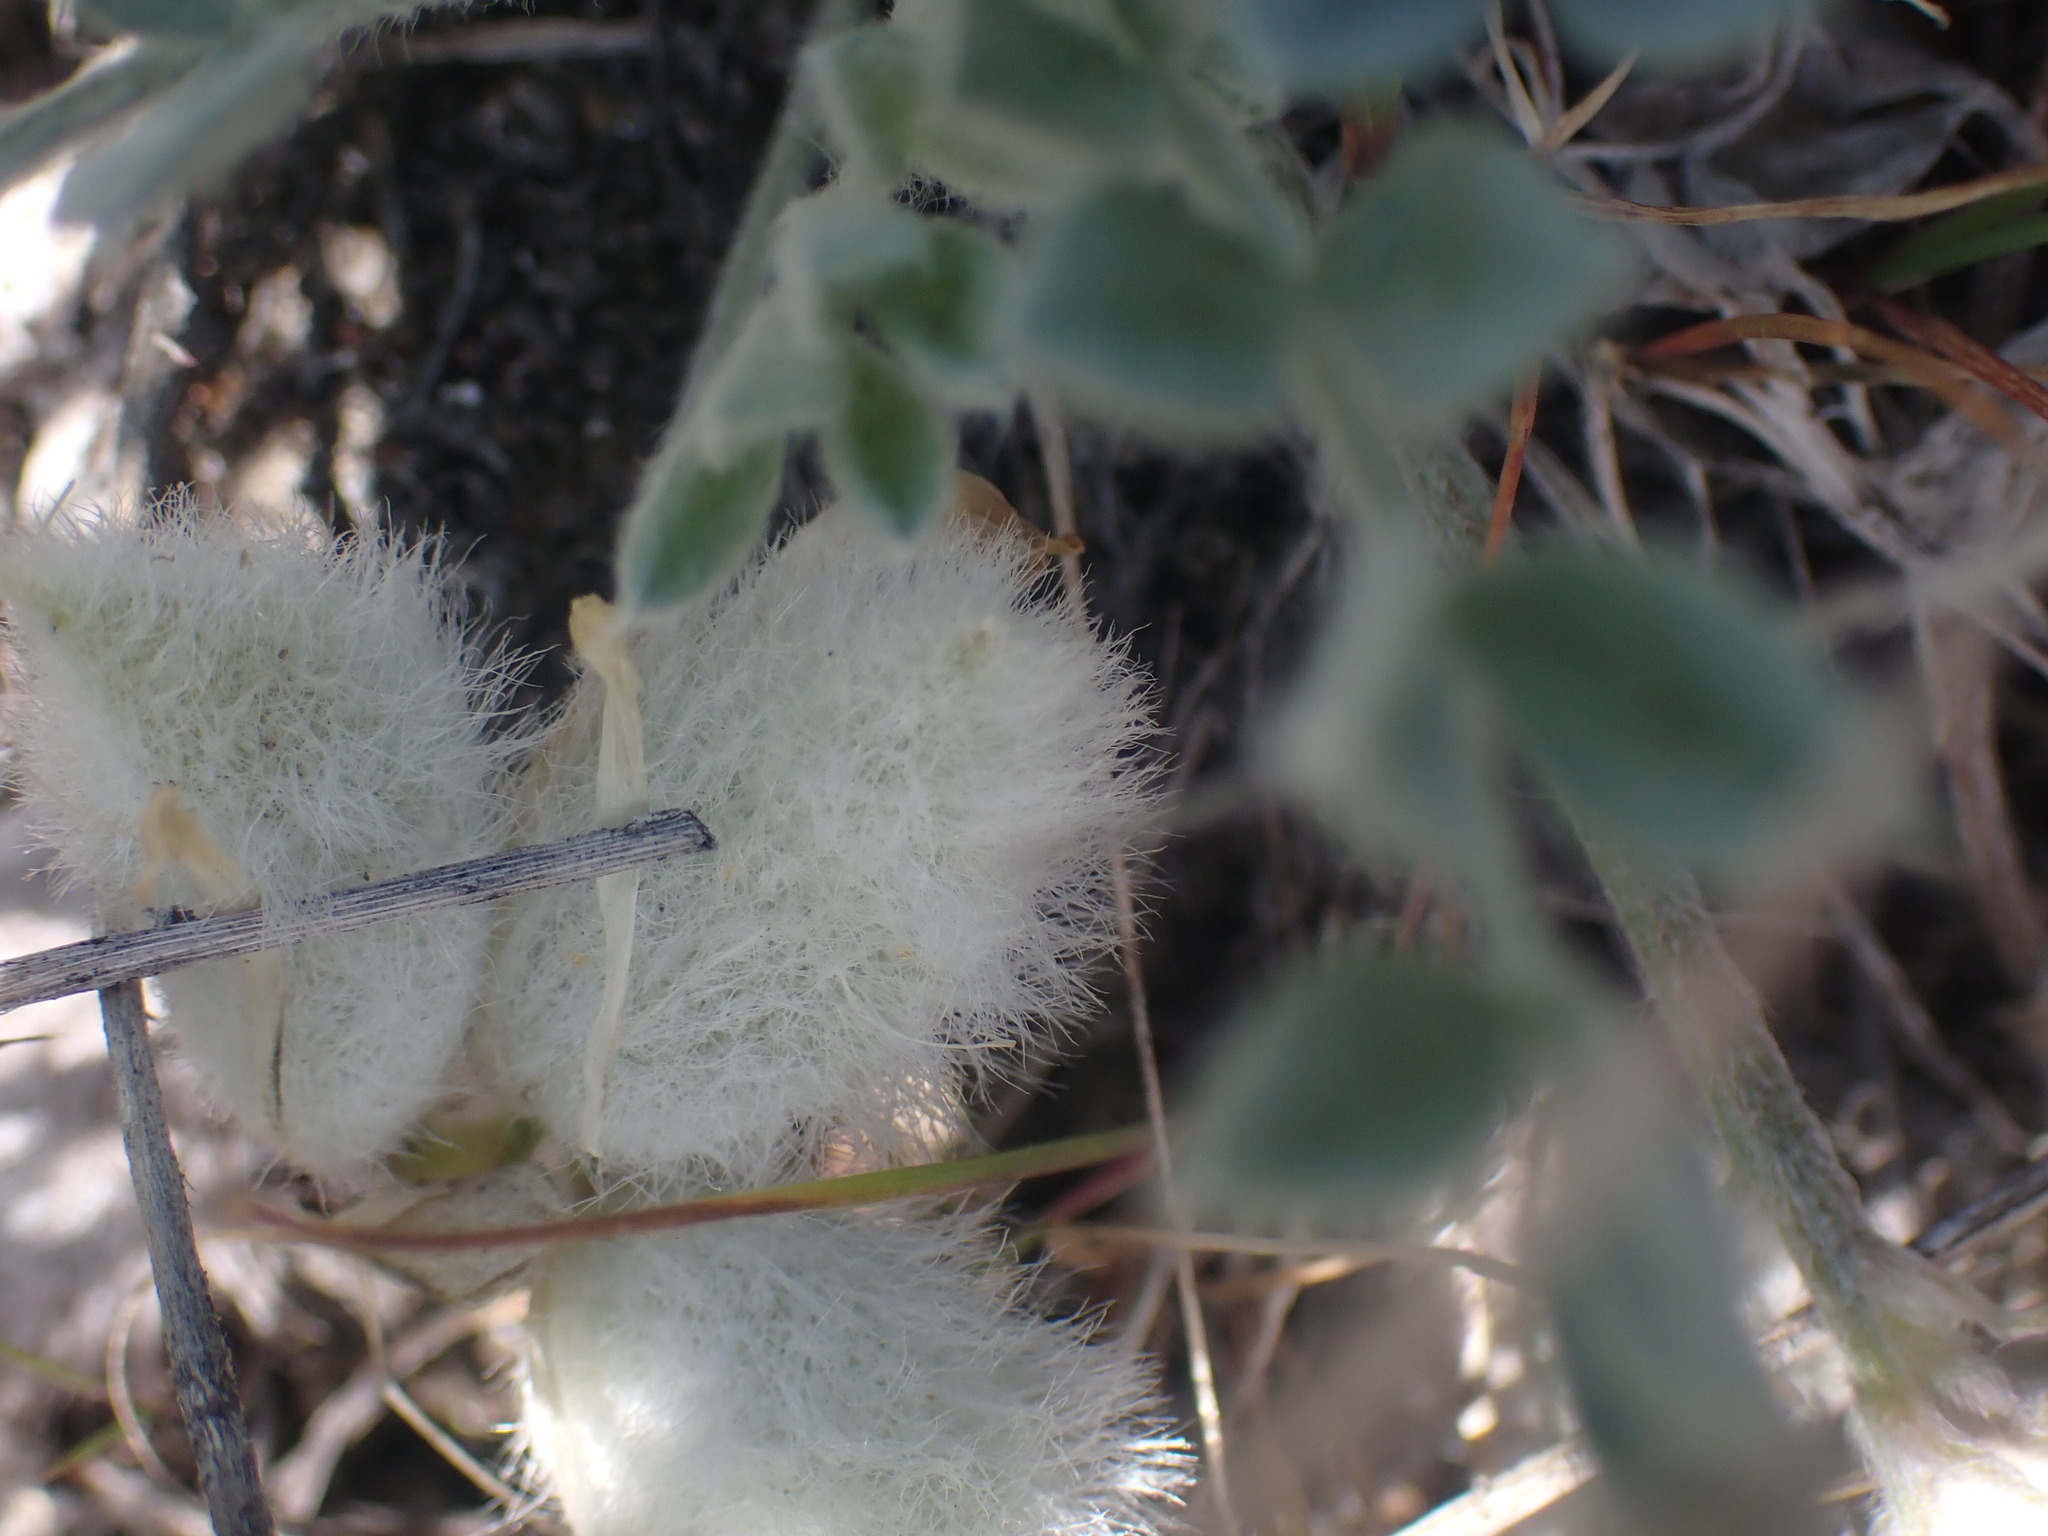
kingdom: Plantae
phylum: Tracheophyta
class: Magnoliopsida
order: Fabales
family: Fabaceae
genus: Astragalus
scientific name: Astragalus purshii
